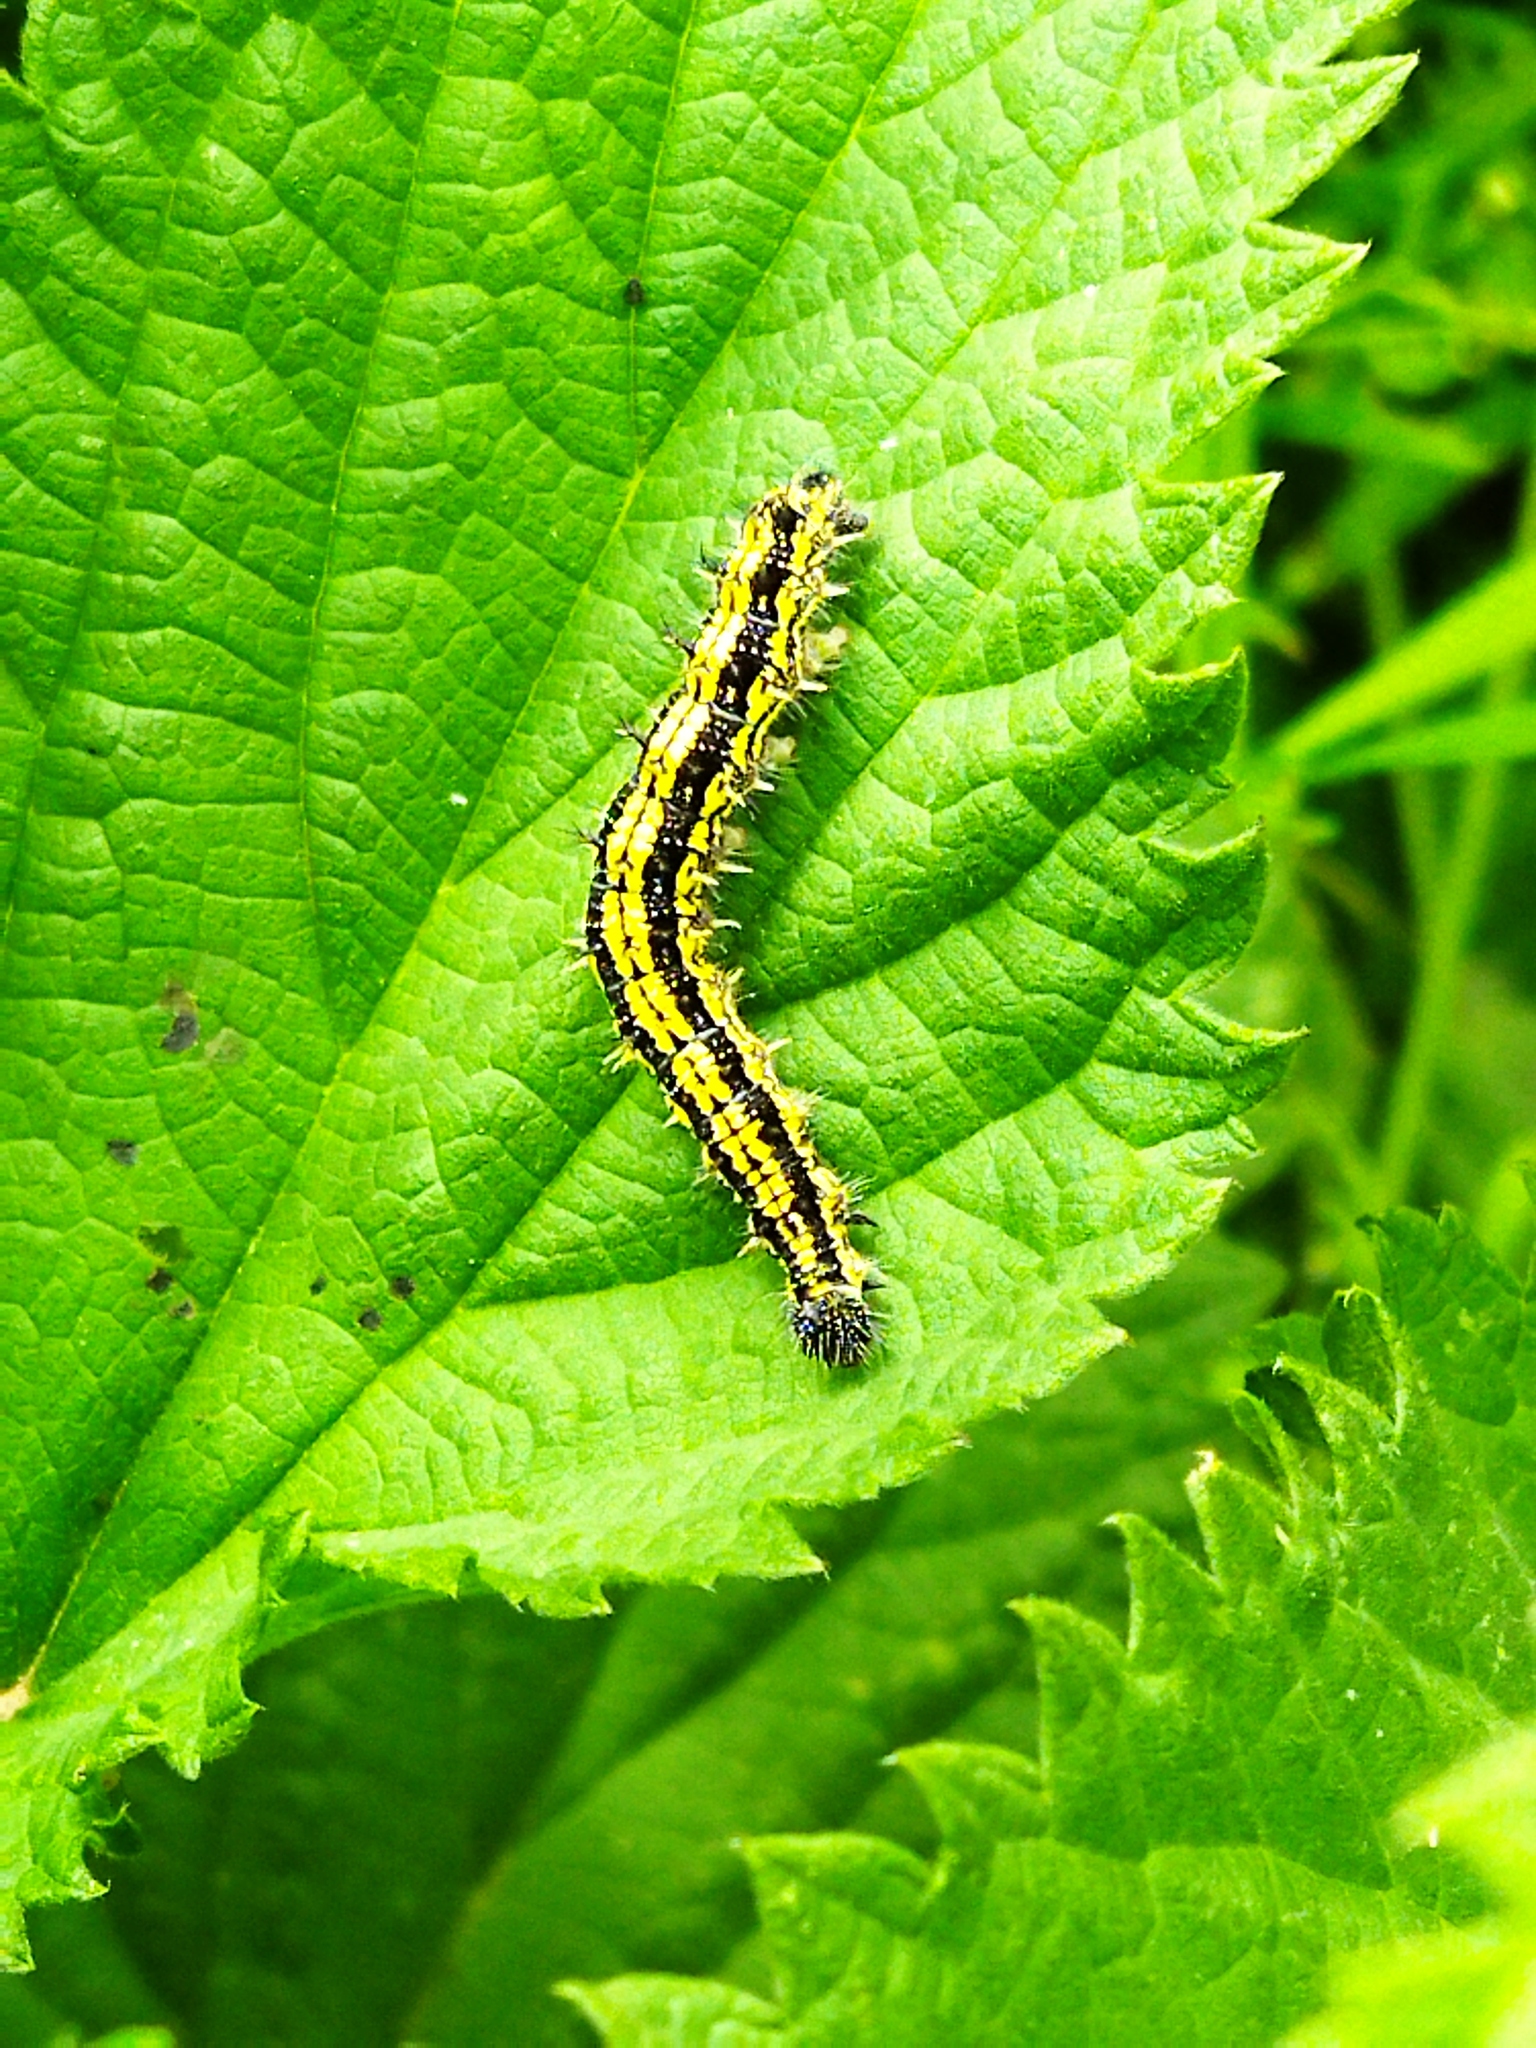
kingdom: Animalia
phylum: Arthropoda
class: Insecta
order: Lepidoptera
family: Nymphalidae
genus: Aglais
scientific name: Aglais urticae
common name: Small tortoiseshell
